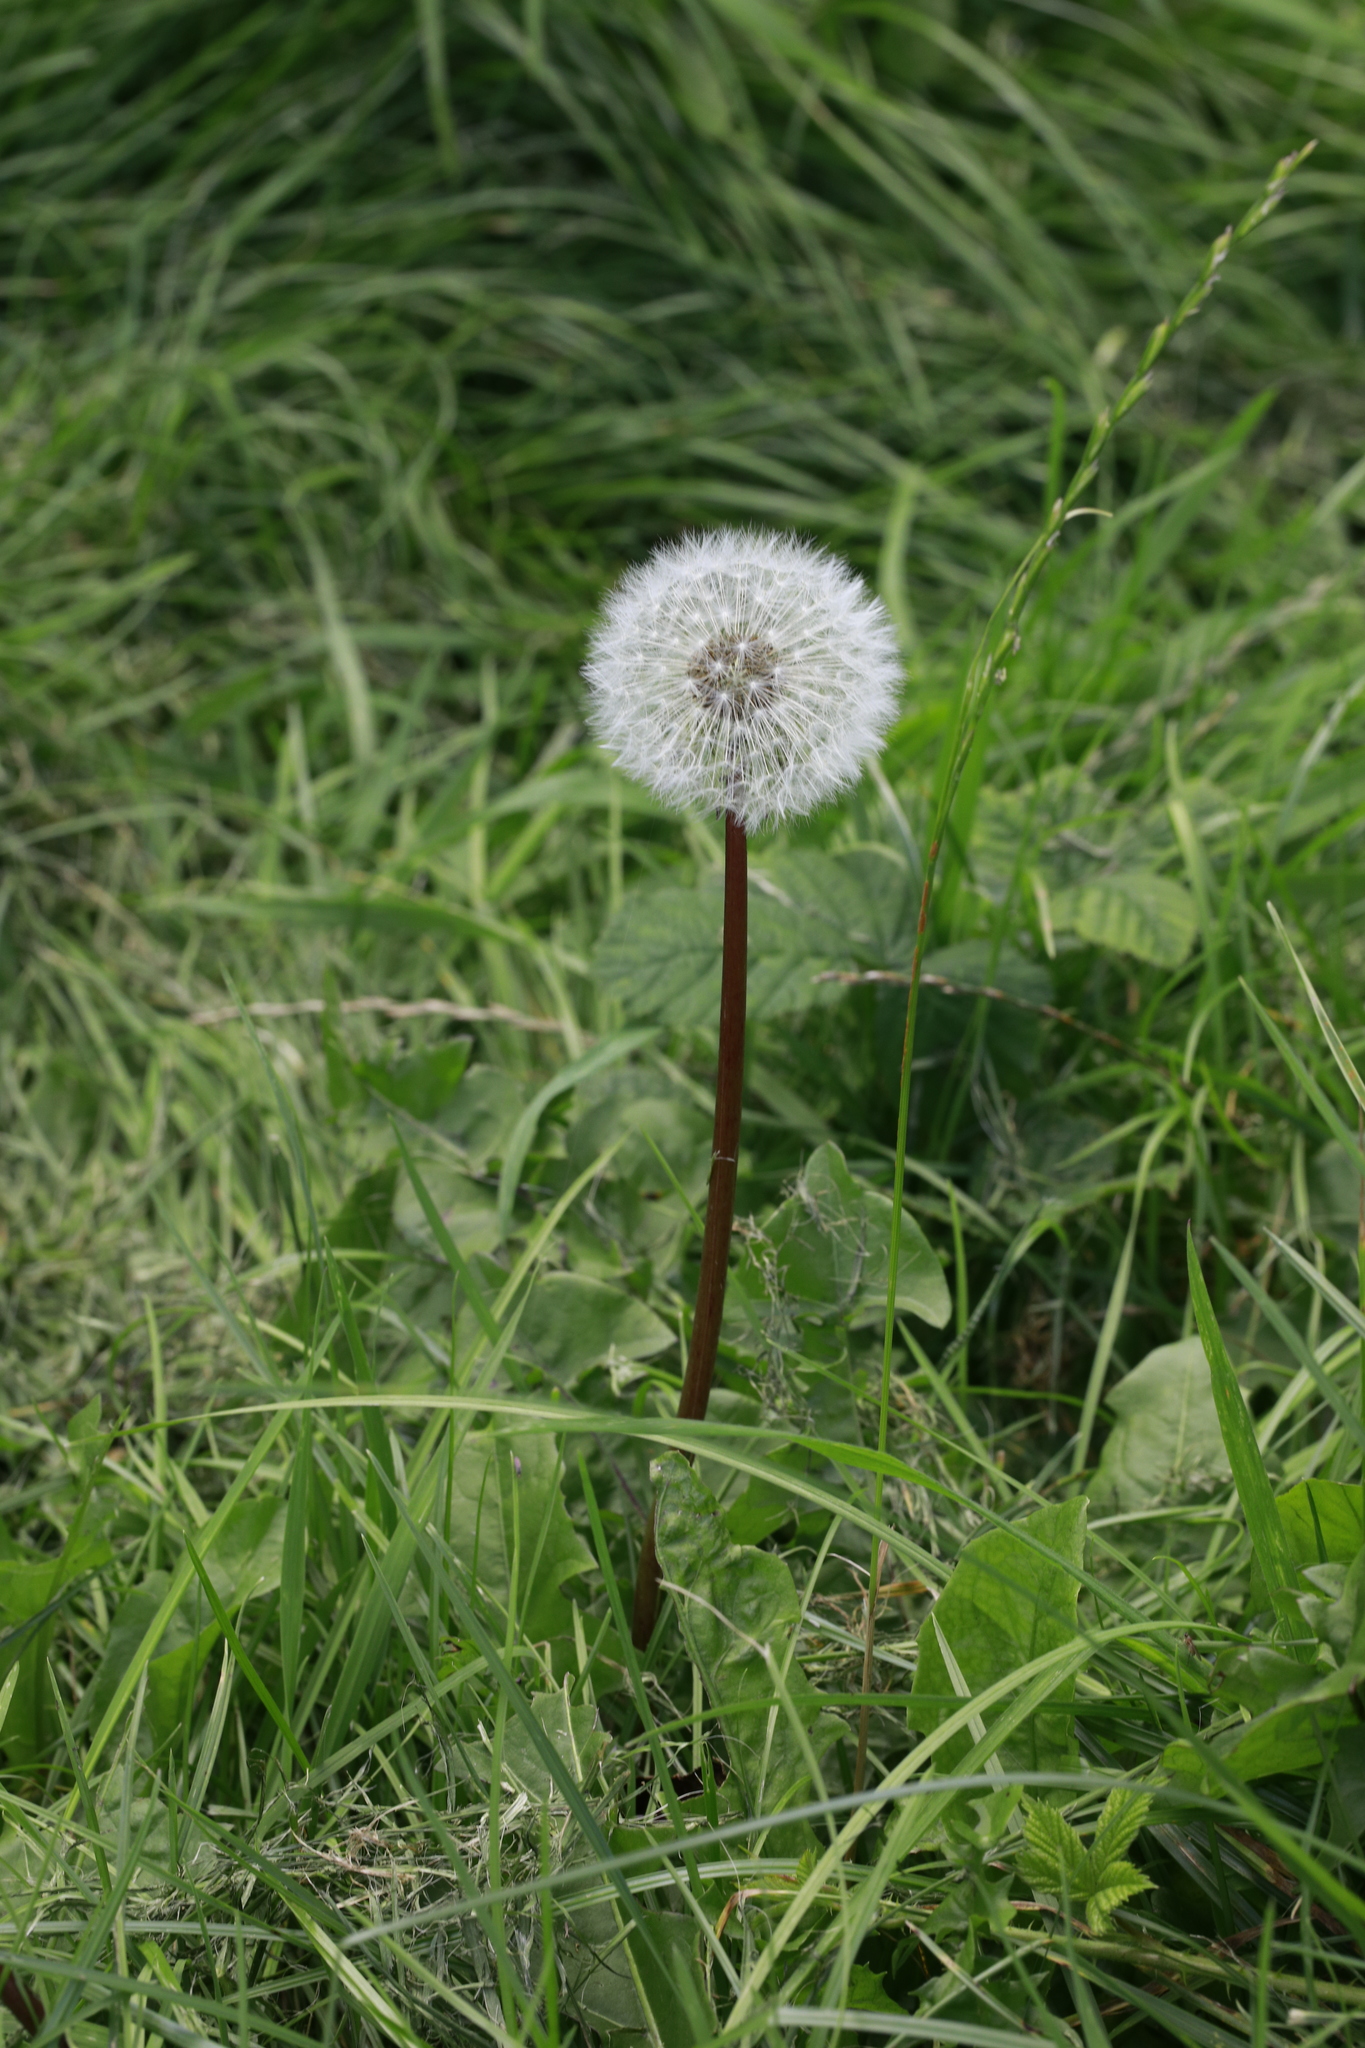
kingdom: Plantae
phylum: Tracheophyta
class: Magnoliopsida
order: Asterales
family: Asteraceae
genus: Taraxacum
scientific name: Taraxacum officinale
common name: Common dandelion
